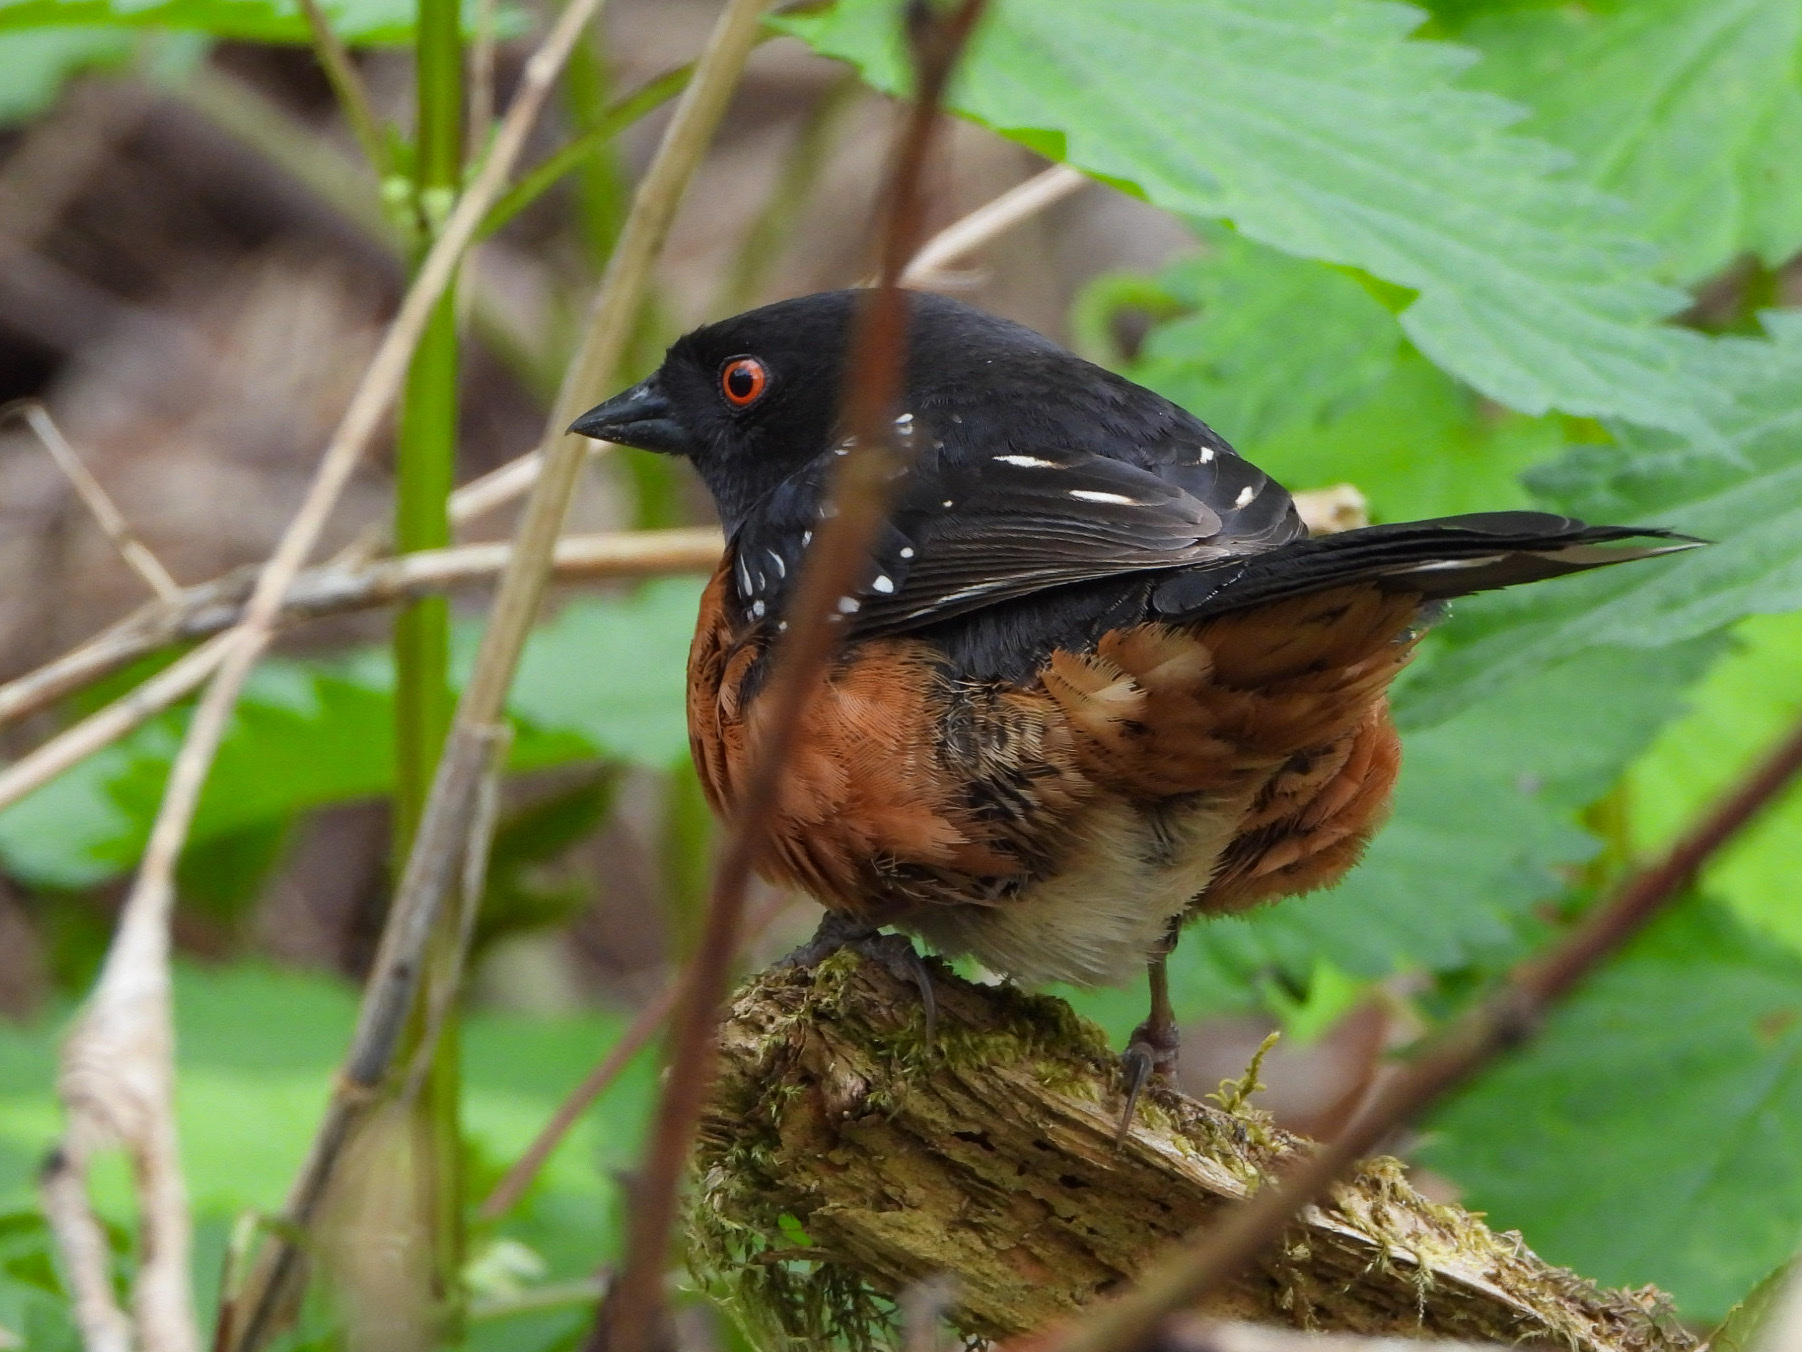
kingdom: Animalia
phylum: Chordata
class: Aves
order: Passeriformes
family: Passerellidae
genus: Pipilo
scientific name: Pipilo maculatus
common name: Spotted towhee
